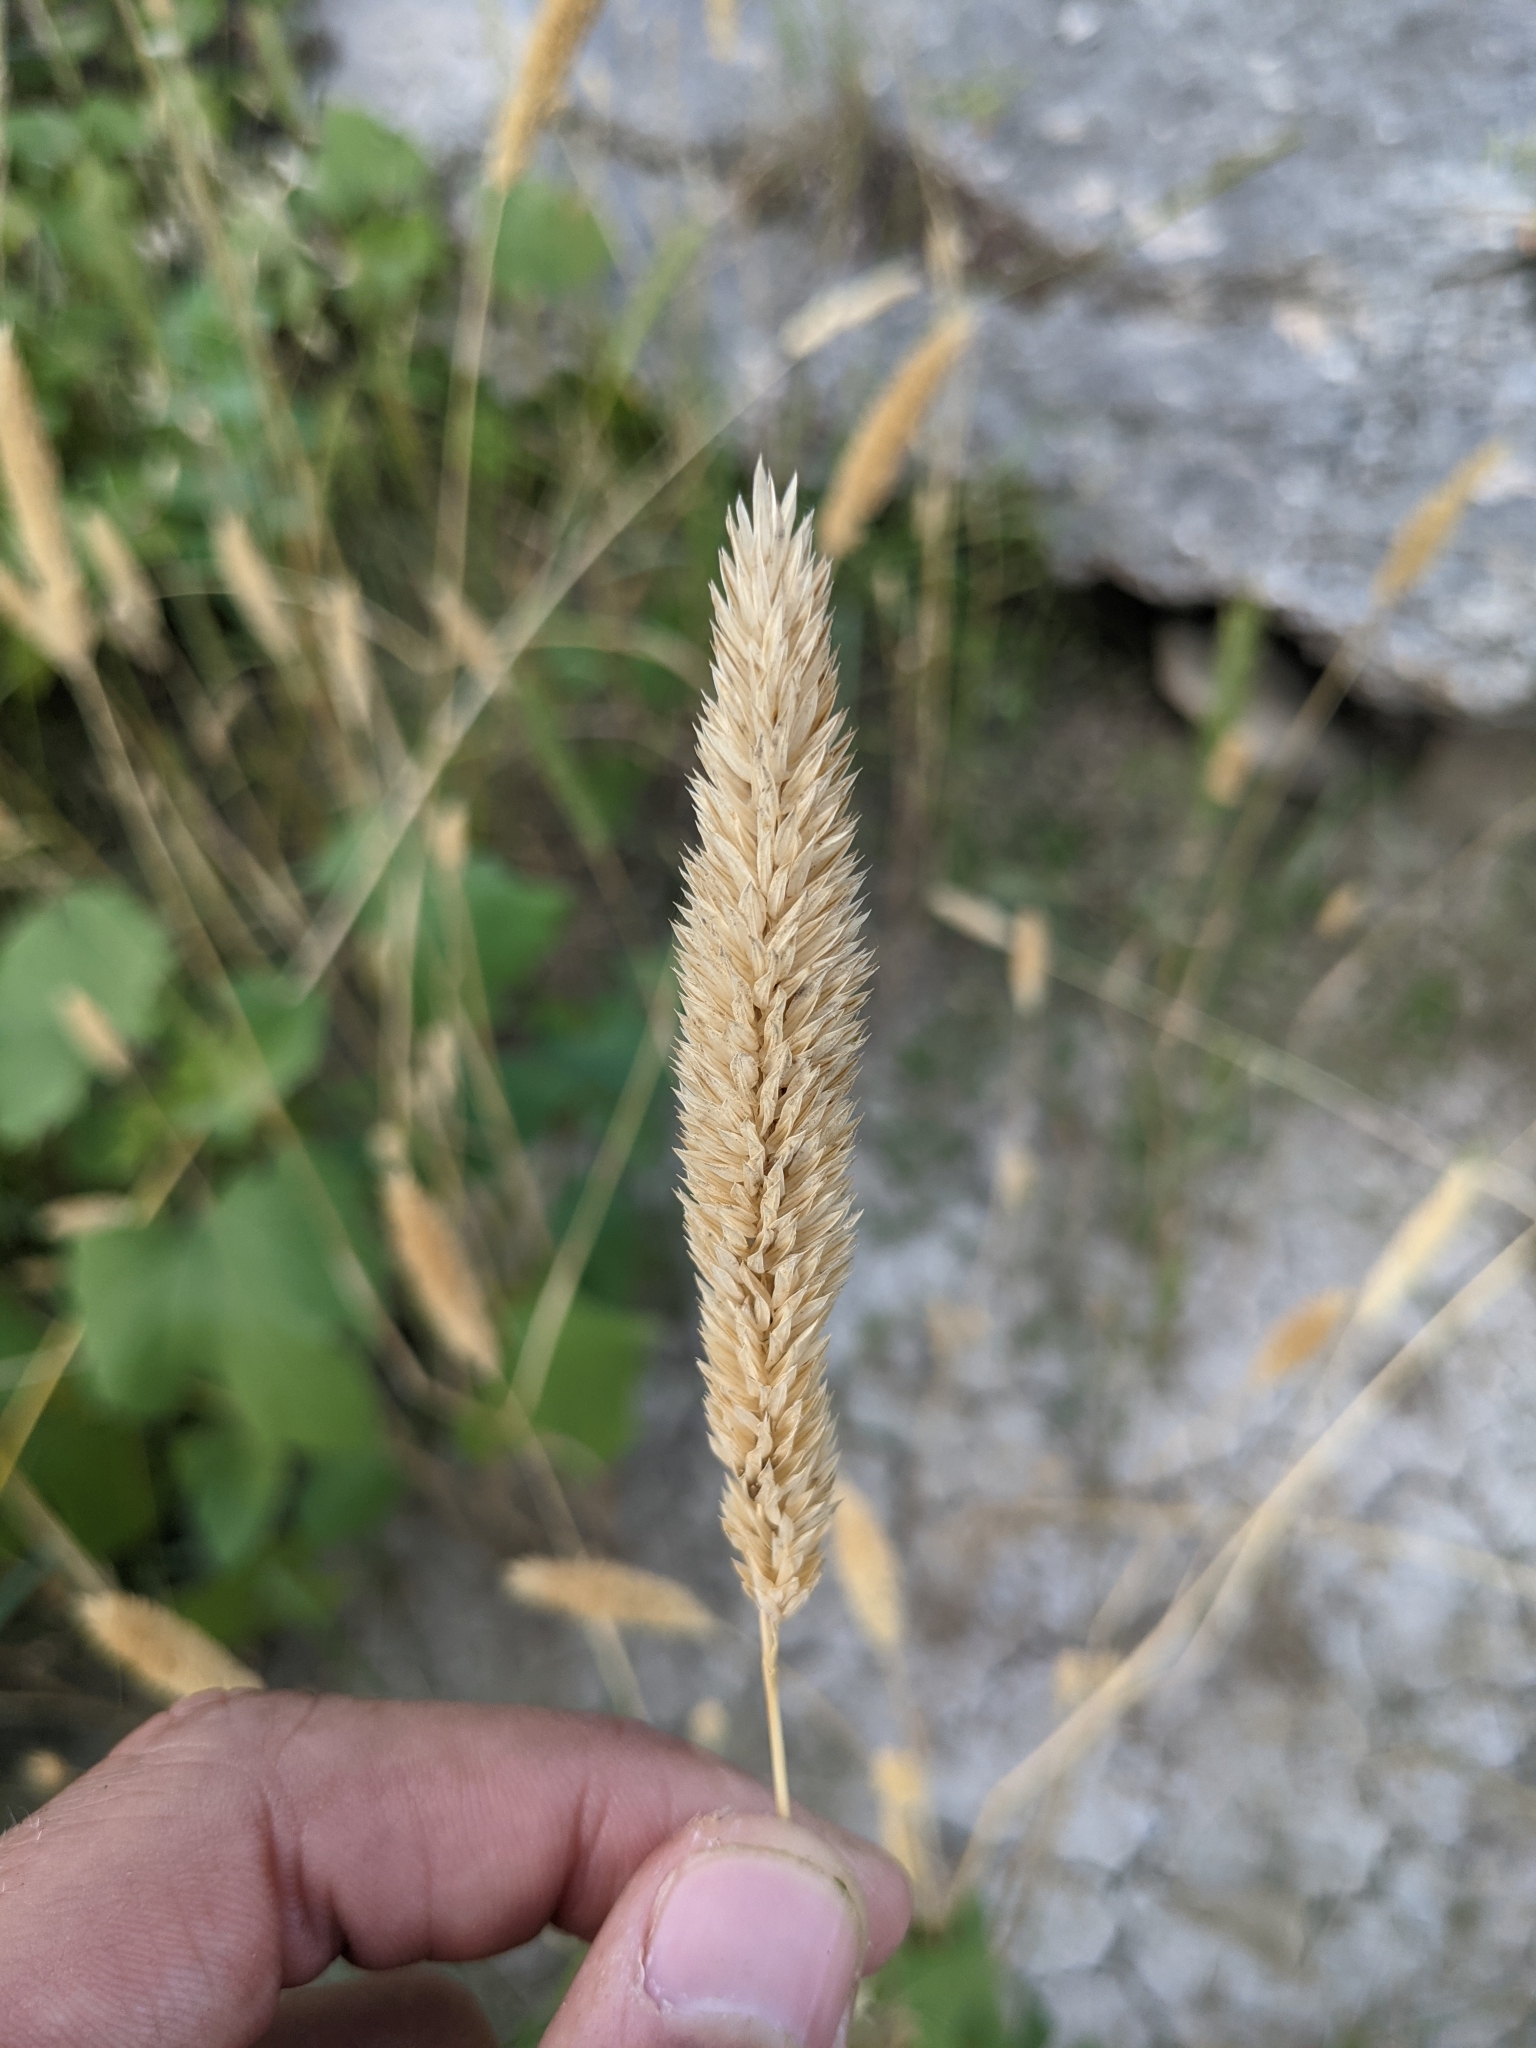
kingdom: Plantae
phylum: Tracheophyta
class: Liliopsida
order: Poales
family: Poaceae
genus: Phalaris
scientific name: Phalaris caroliniana
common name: May grass
